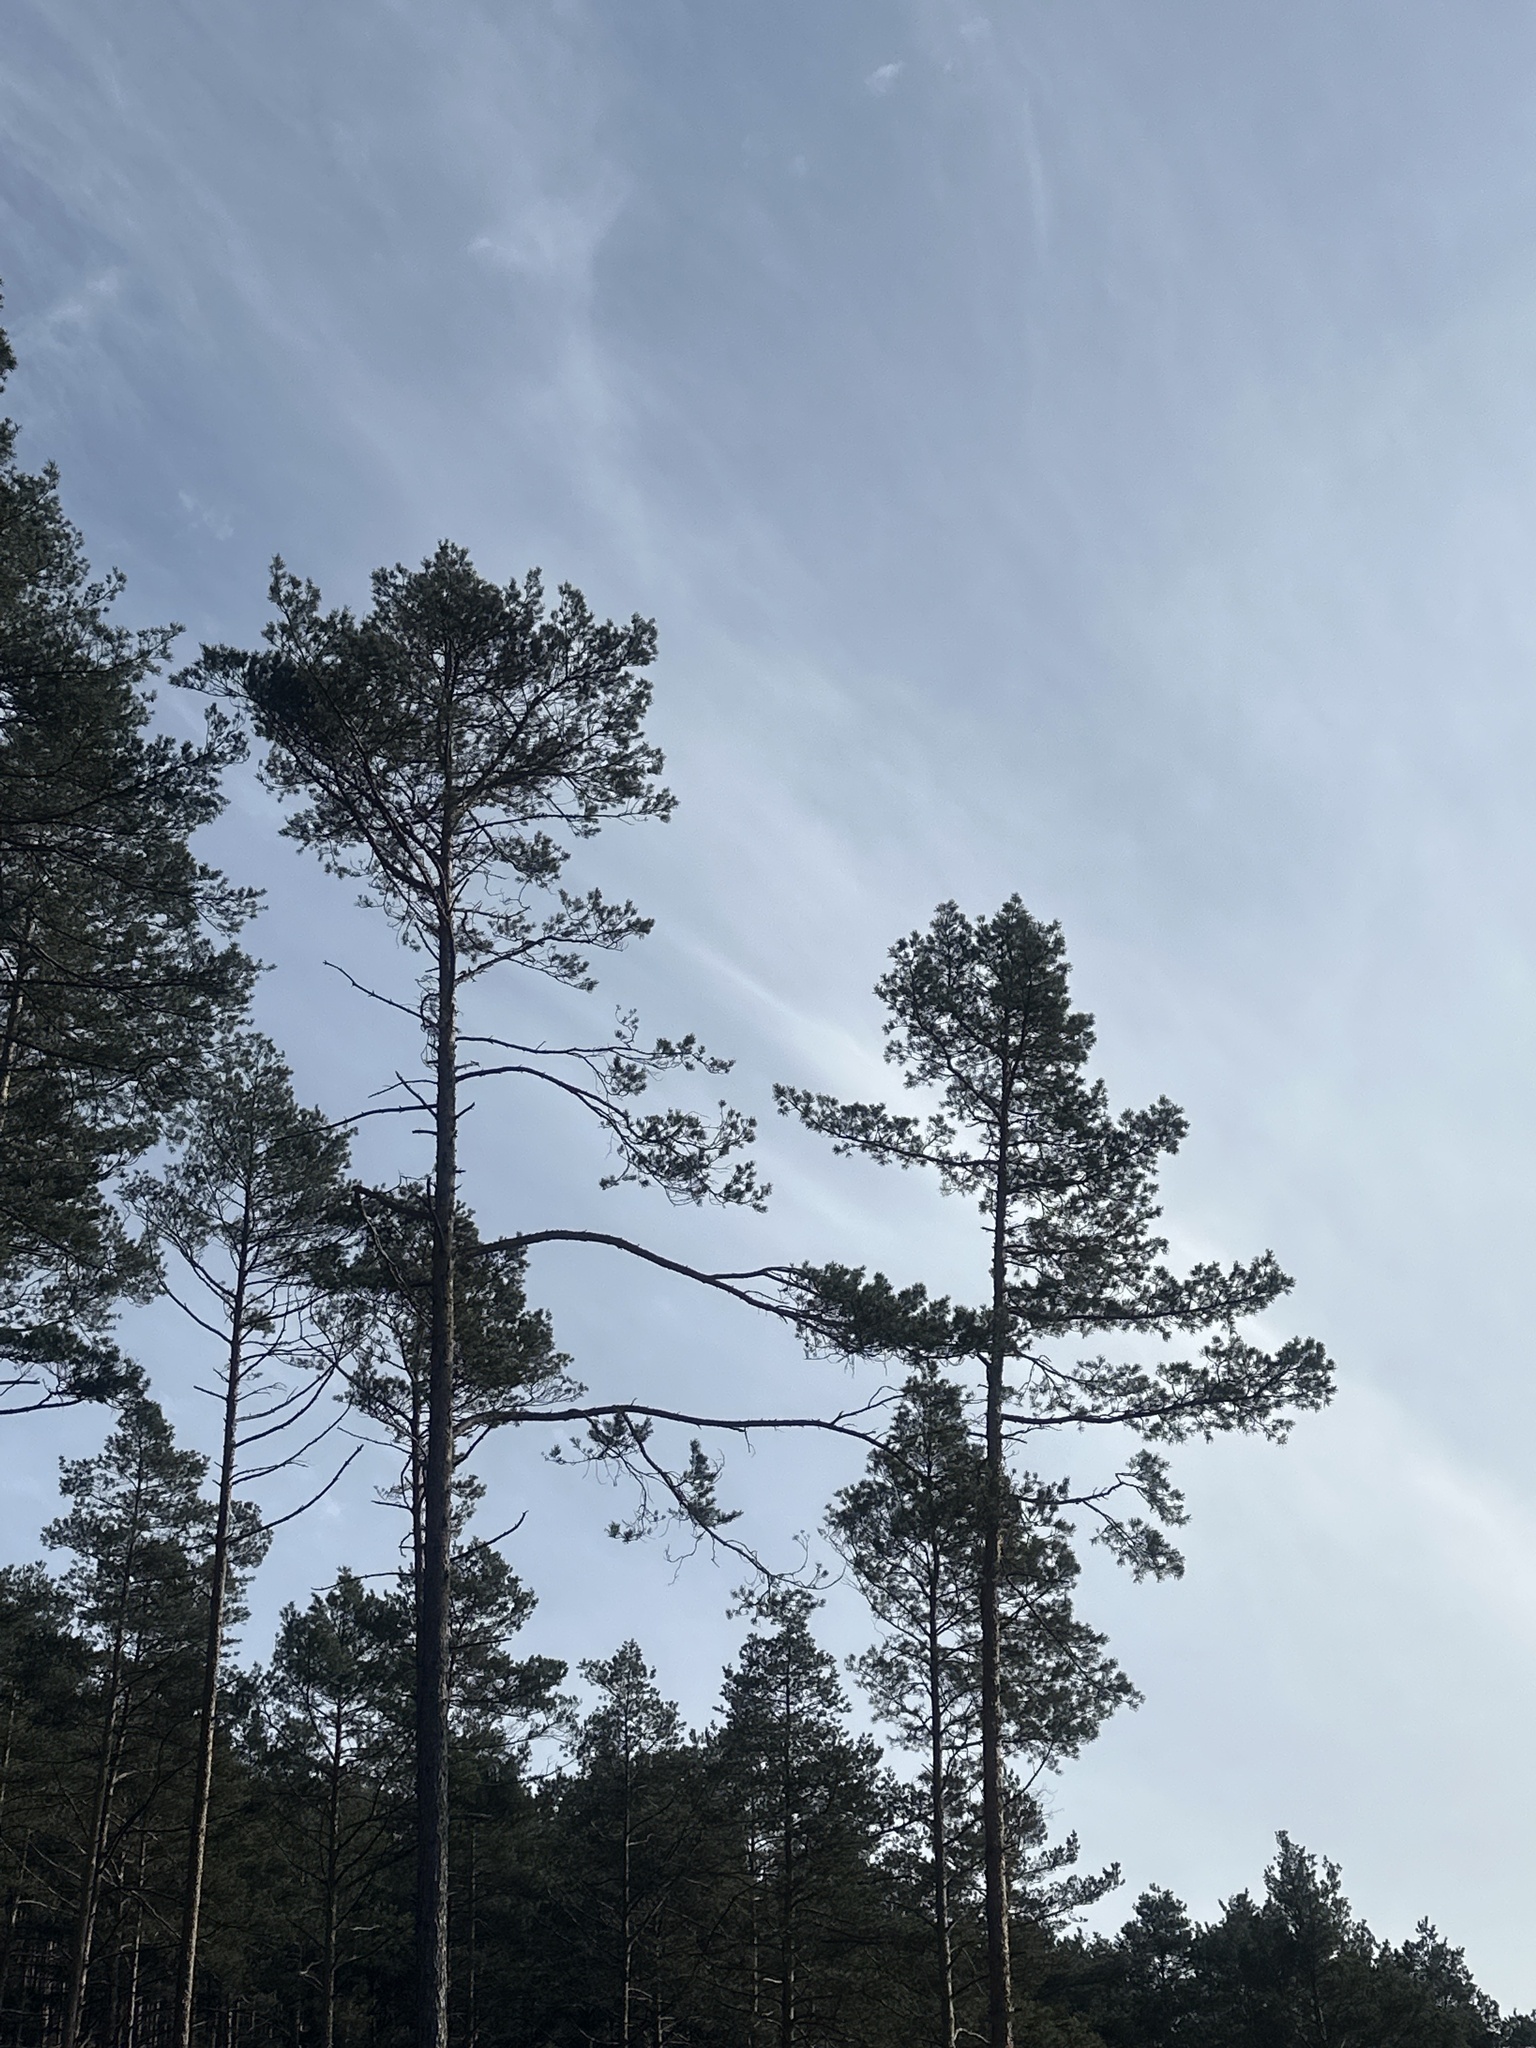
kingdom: Plantae
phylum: Tracheophyta
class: Pinopsida
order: Pinales
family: Pinaceae
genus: Pinus
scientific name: Pinus sylvestris
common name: Scots pine
